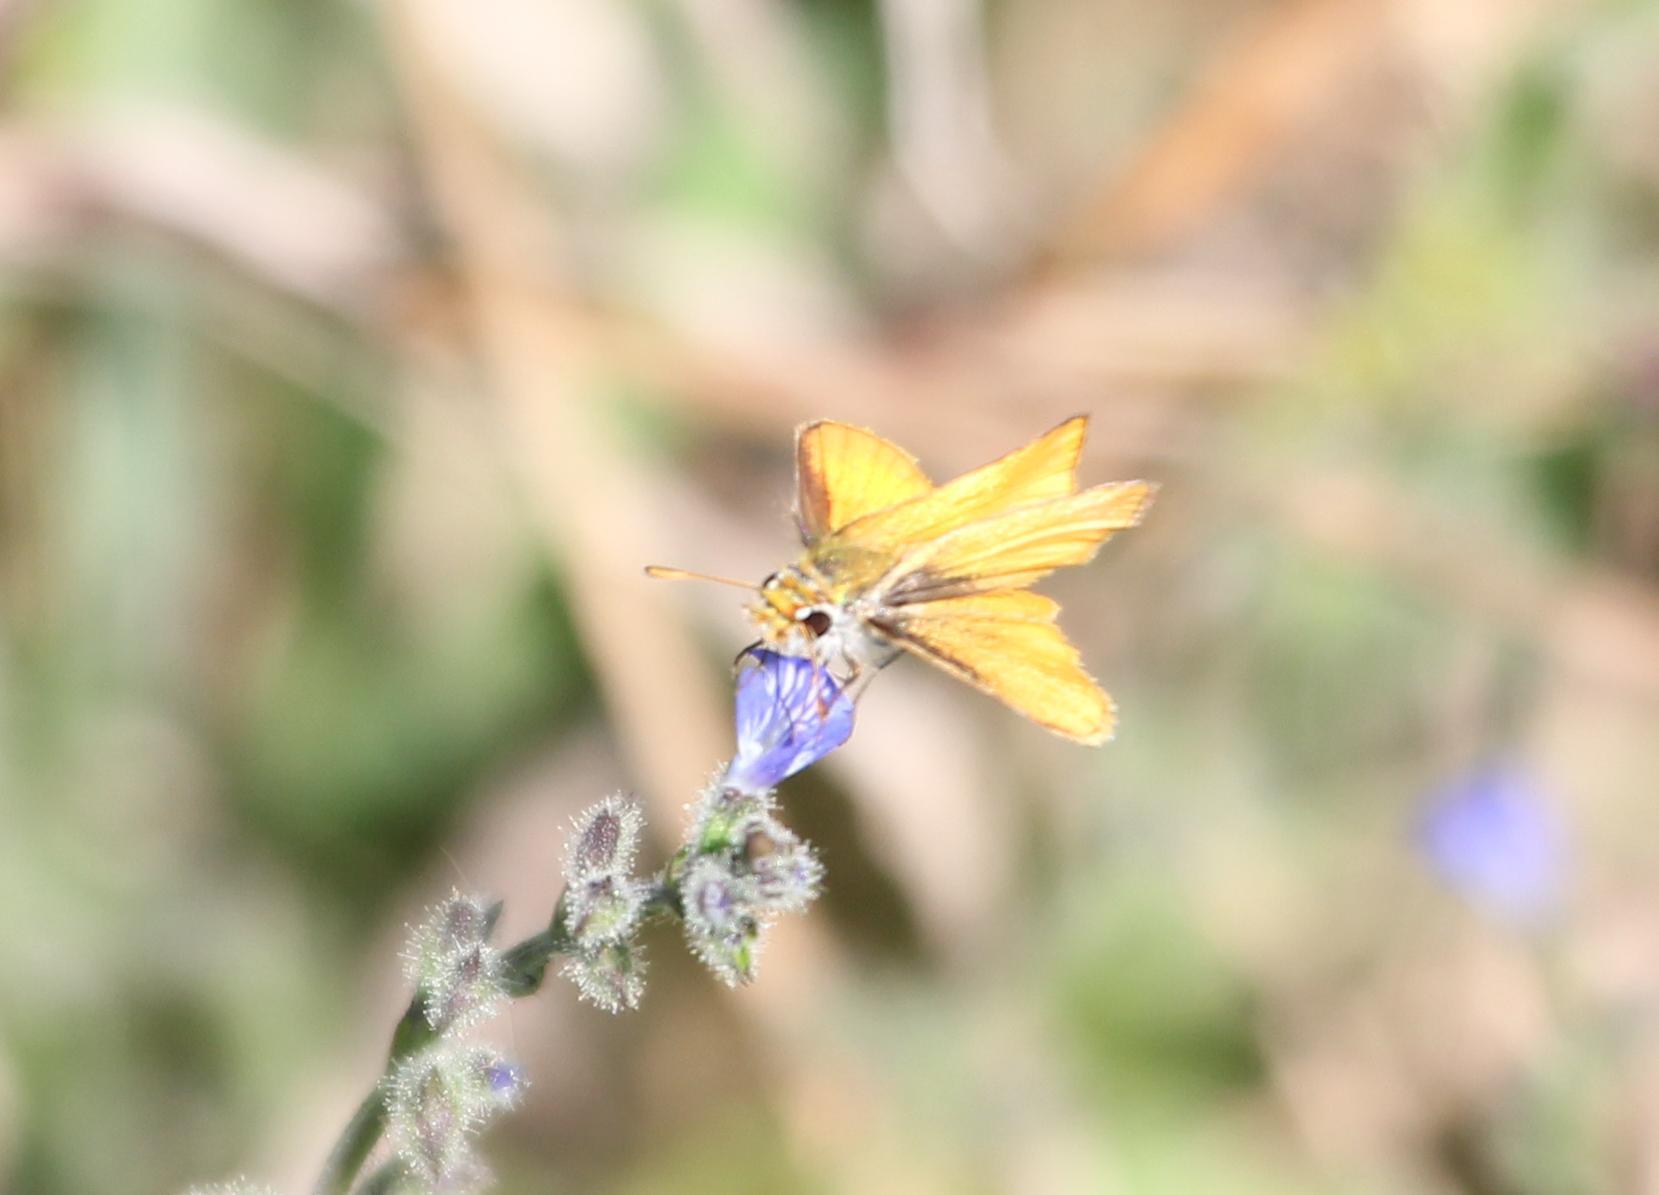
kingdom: Animalia
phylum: Arthropoda
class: Insecta
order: Lepidoptera
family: Hesperiidae
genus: Copaeodes
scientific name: Copaeodes minima
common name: Southern skipperling
